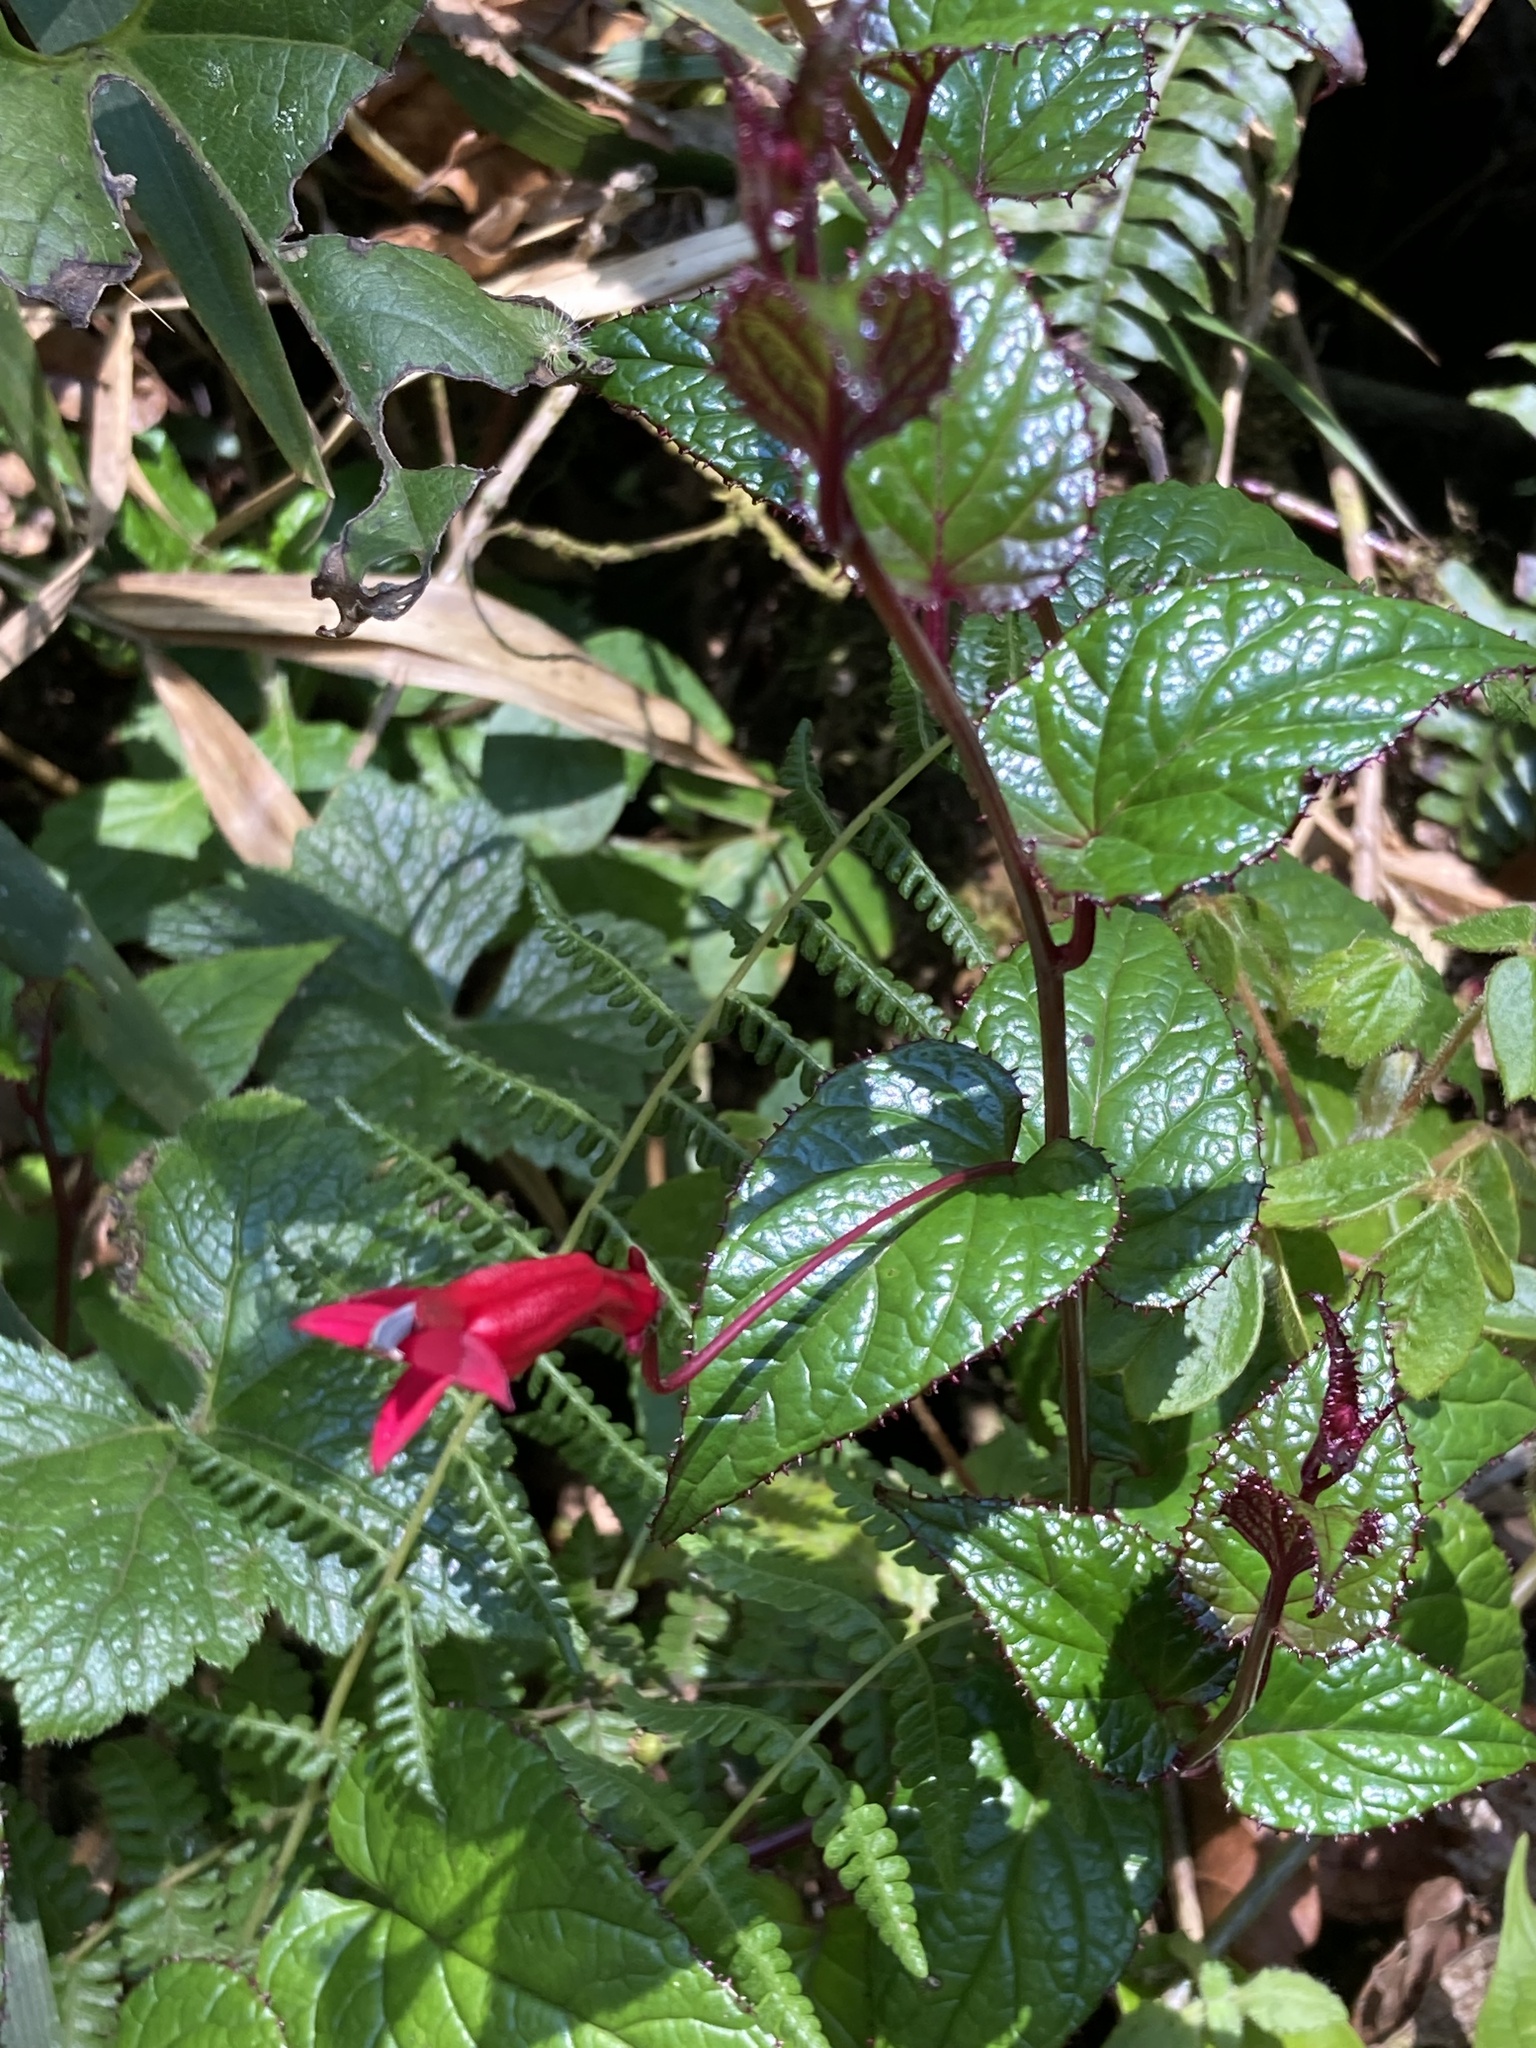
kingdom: Plantae
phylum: Tracheophyta
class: Magnoliopsida
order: Asterales
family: Campanulaceae
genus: Centropogon
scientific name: Centropogon costaricae
